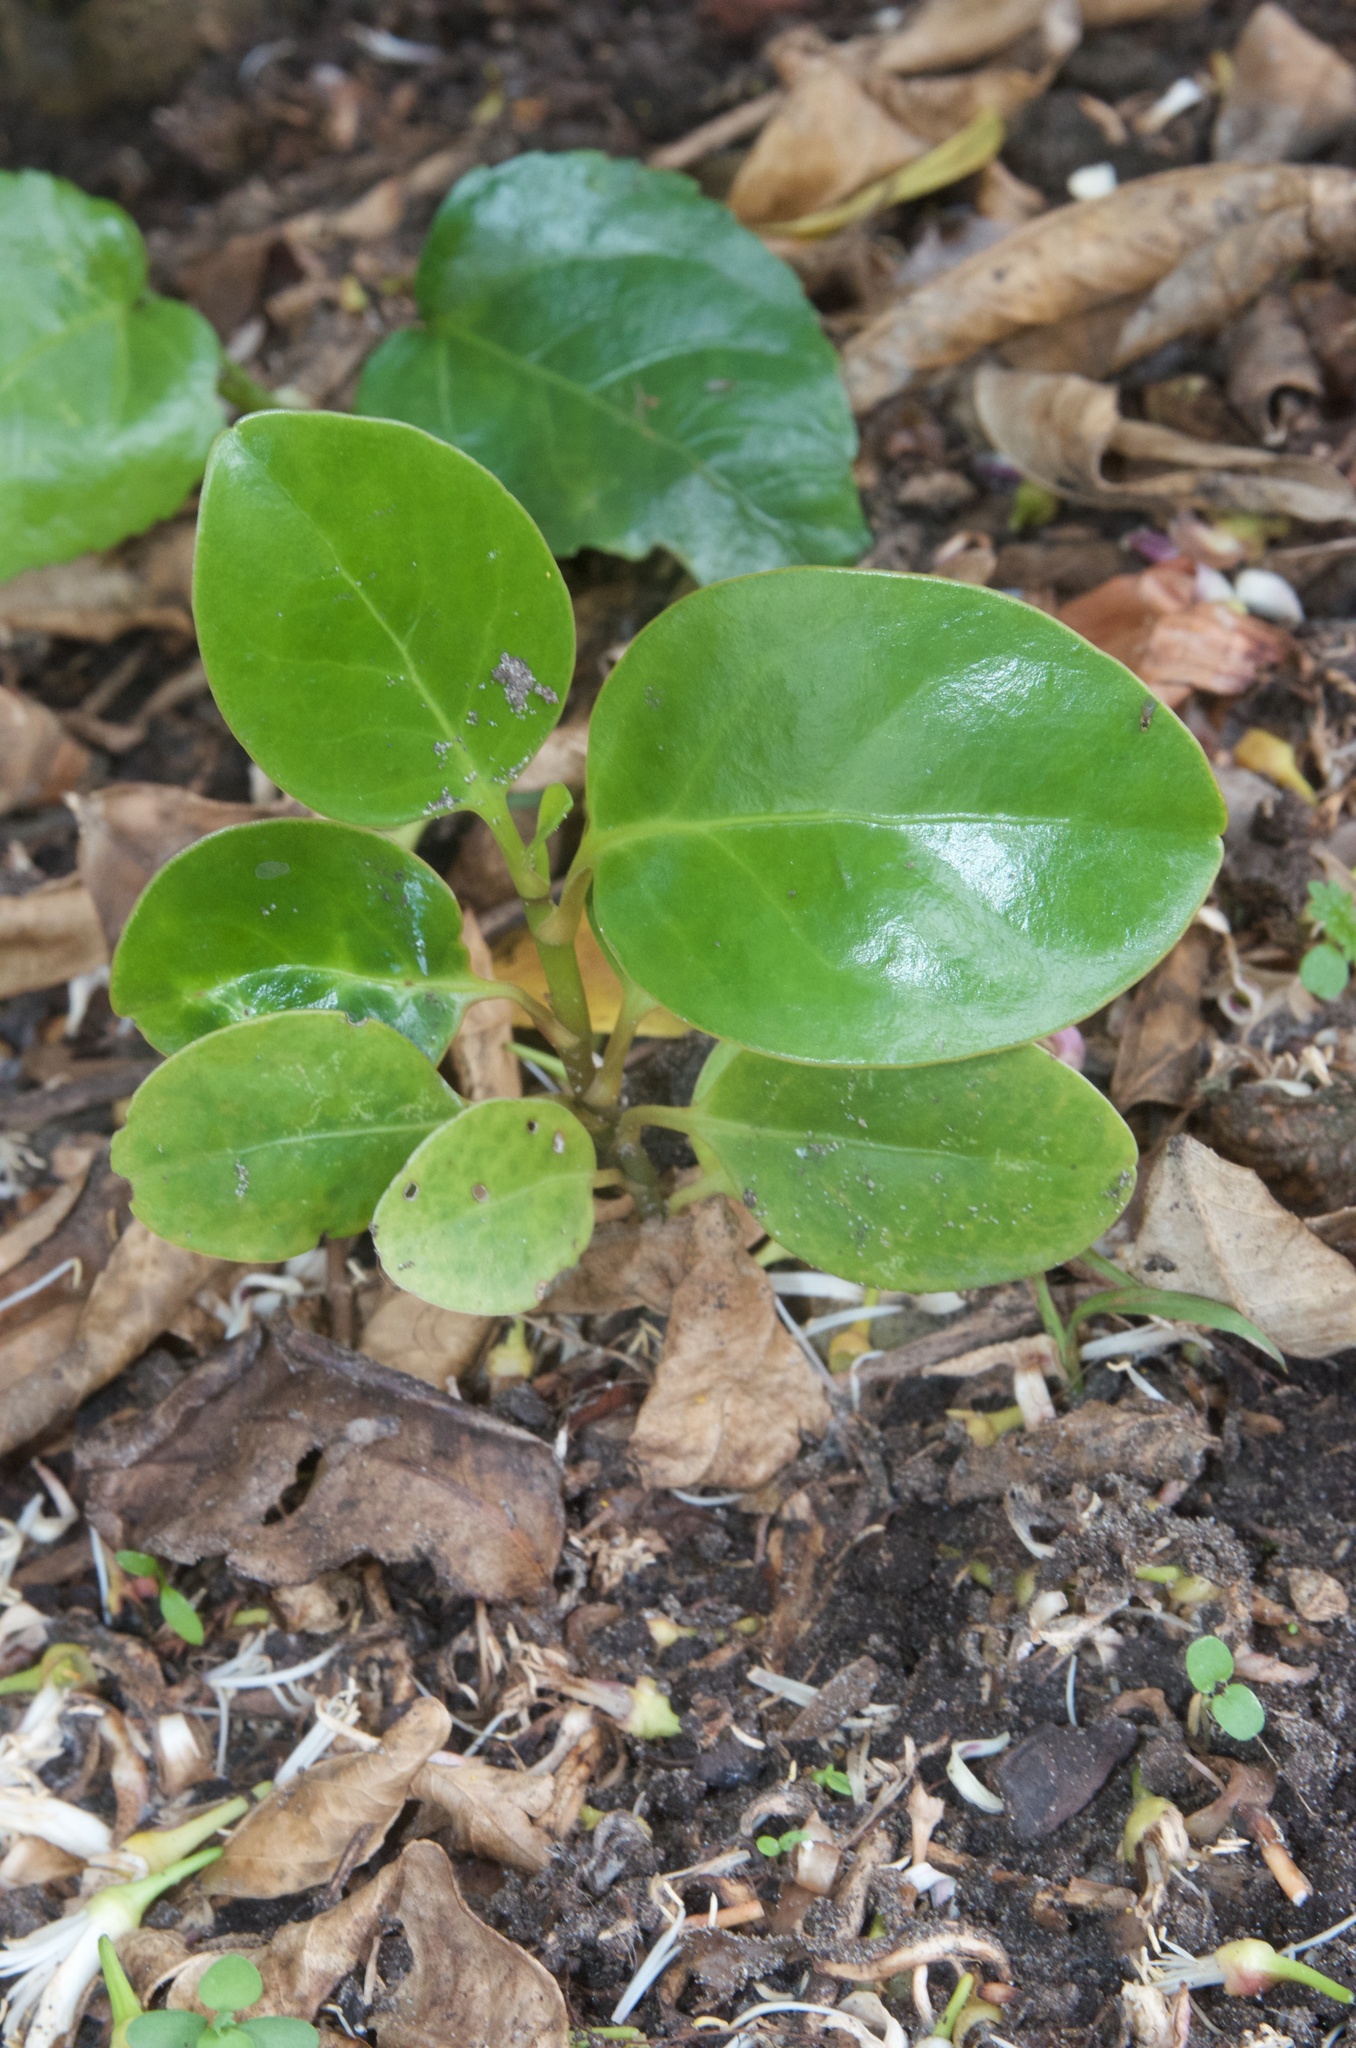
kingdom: Plantae
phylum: Tracheophyta
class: Magnoliopsida
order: Apiales
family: Griseliniaceae
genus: Griselinia
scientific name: Griselinia littoralis
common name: New zealand broadleaf
